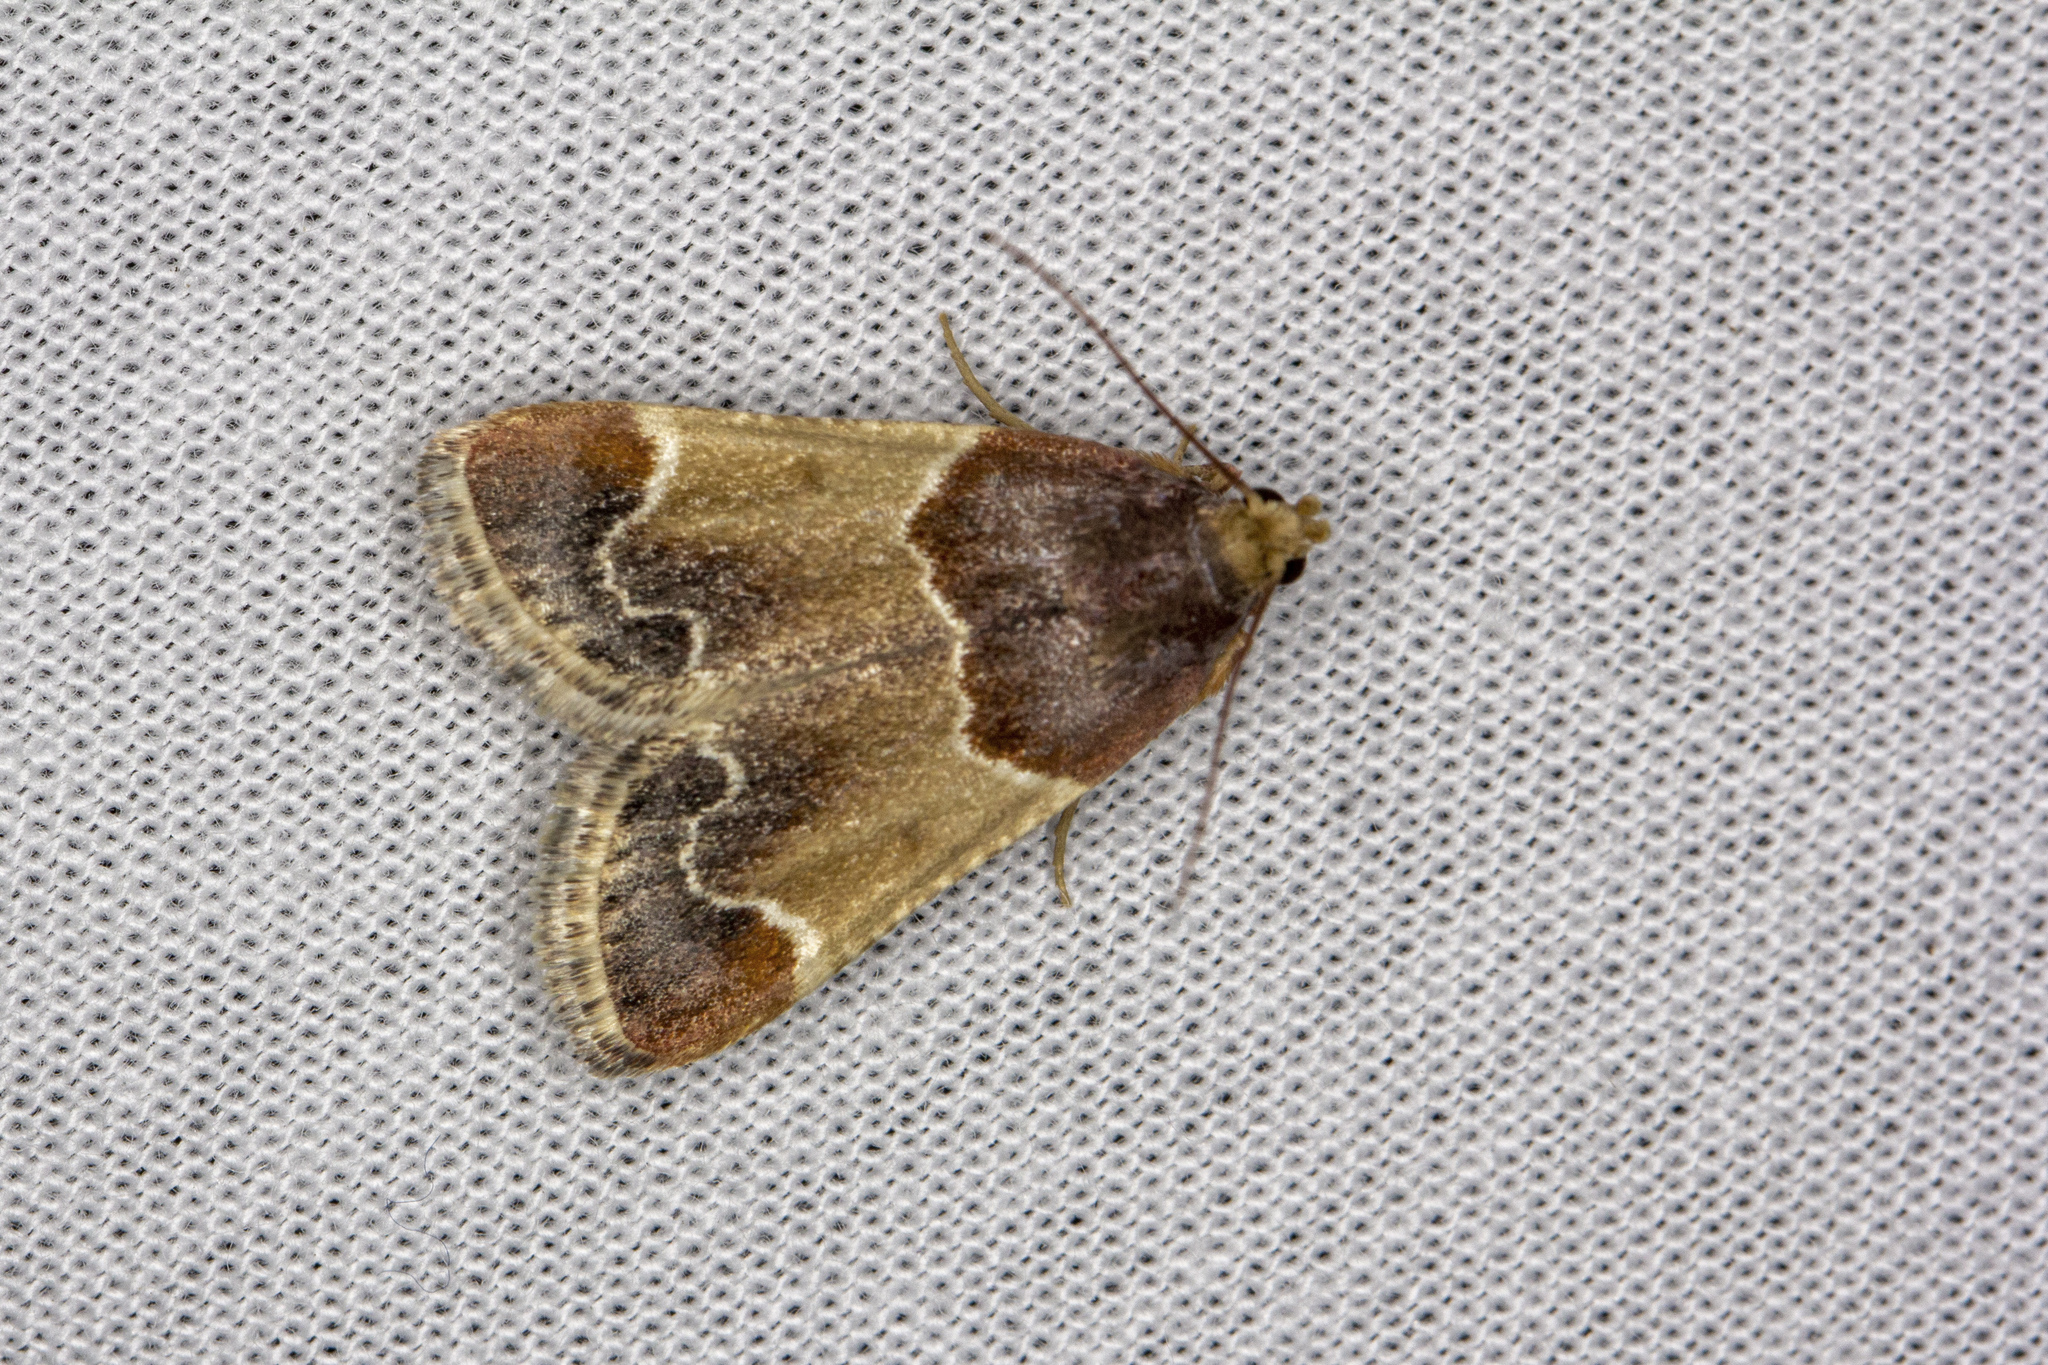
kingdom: Animalia
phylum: Arthropoda
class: Insecta
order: Lepidoptera
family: Pyralidae
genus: Pyralis
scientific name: Pyralis farinalis
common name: Meal moth
